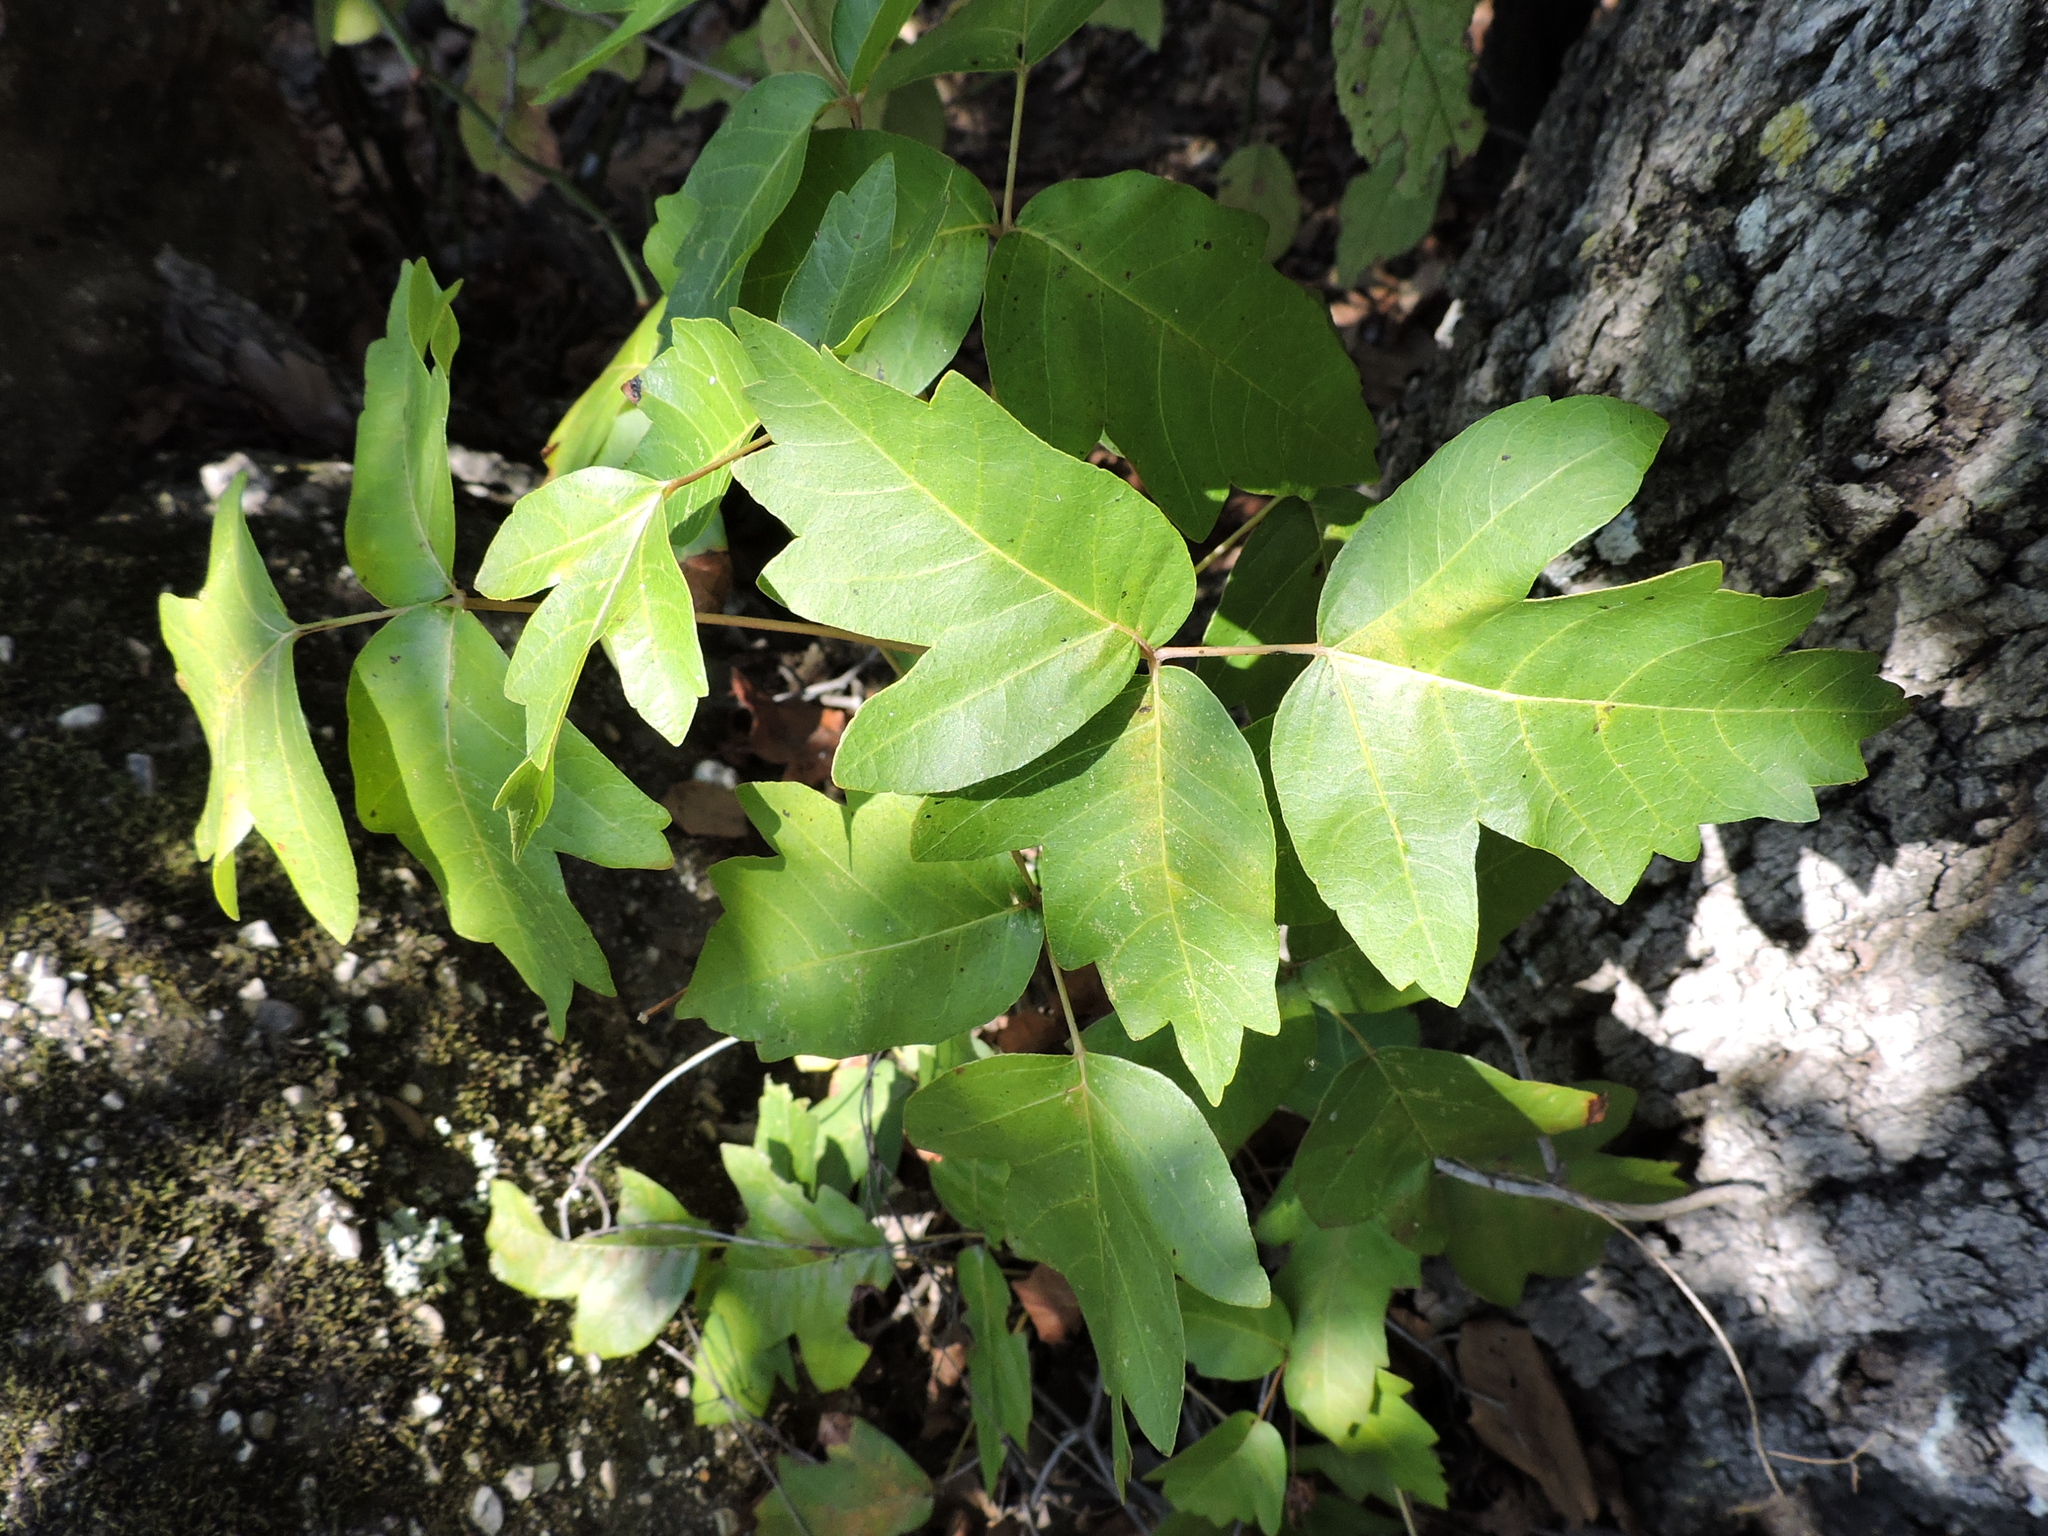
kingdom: Plantae
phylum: Tracheophyta
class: Magnoliopsida
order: Sapindales
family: Anacardiaceae
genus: Toxicodendron
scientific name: Toxicodendron radicans
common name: Poison ivy
